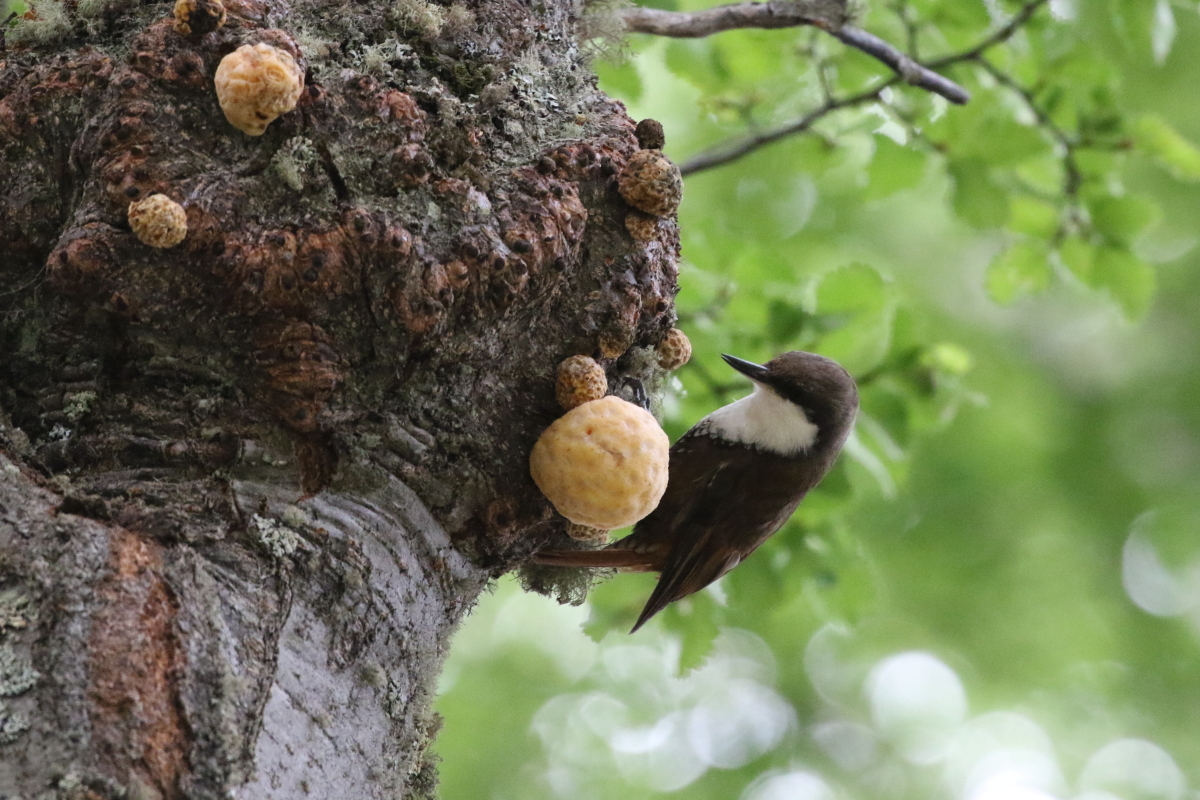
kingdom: Animalia
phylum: Chordata
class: Aves
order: Passeriformes
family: Furnariidae
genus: Pygarrhichas
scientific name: Pygarrhichas albogularis
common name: White-throated treerunner
